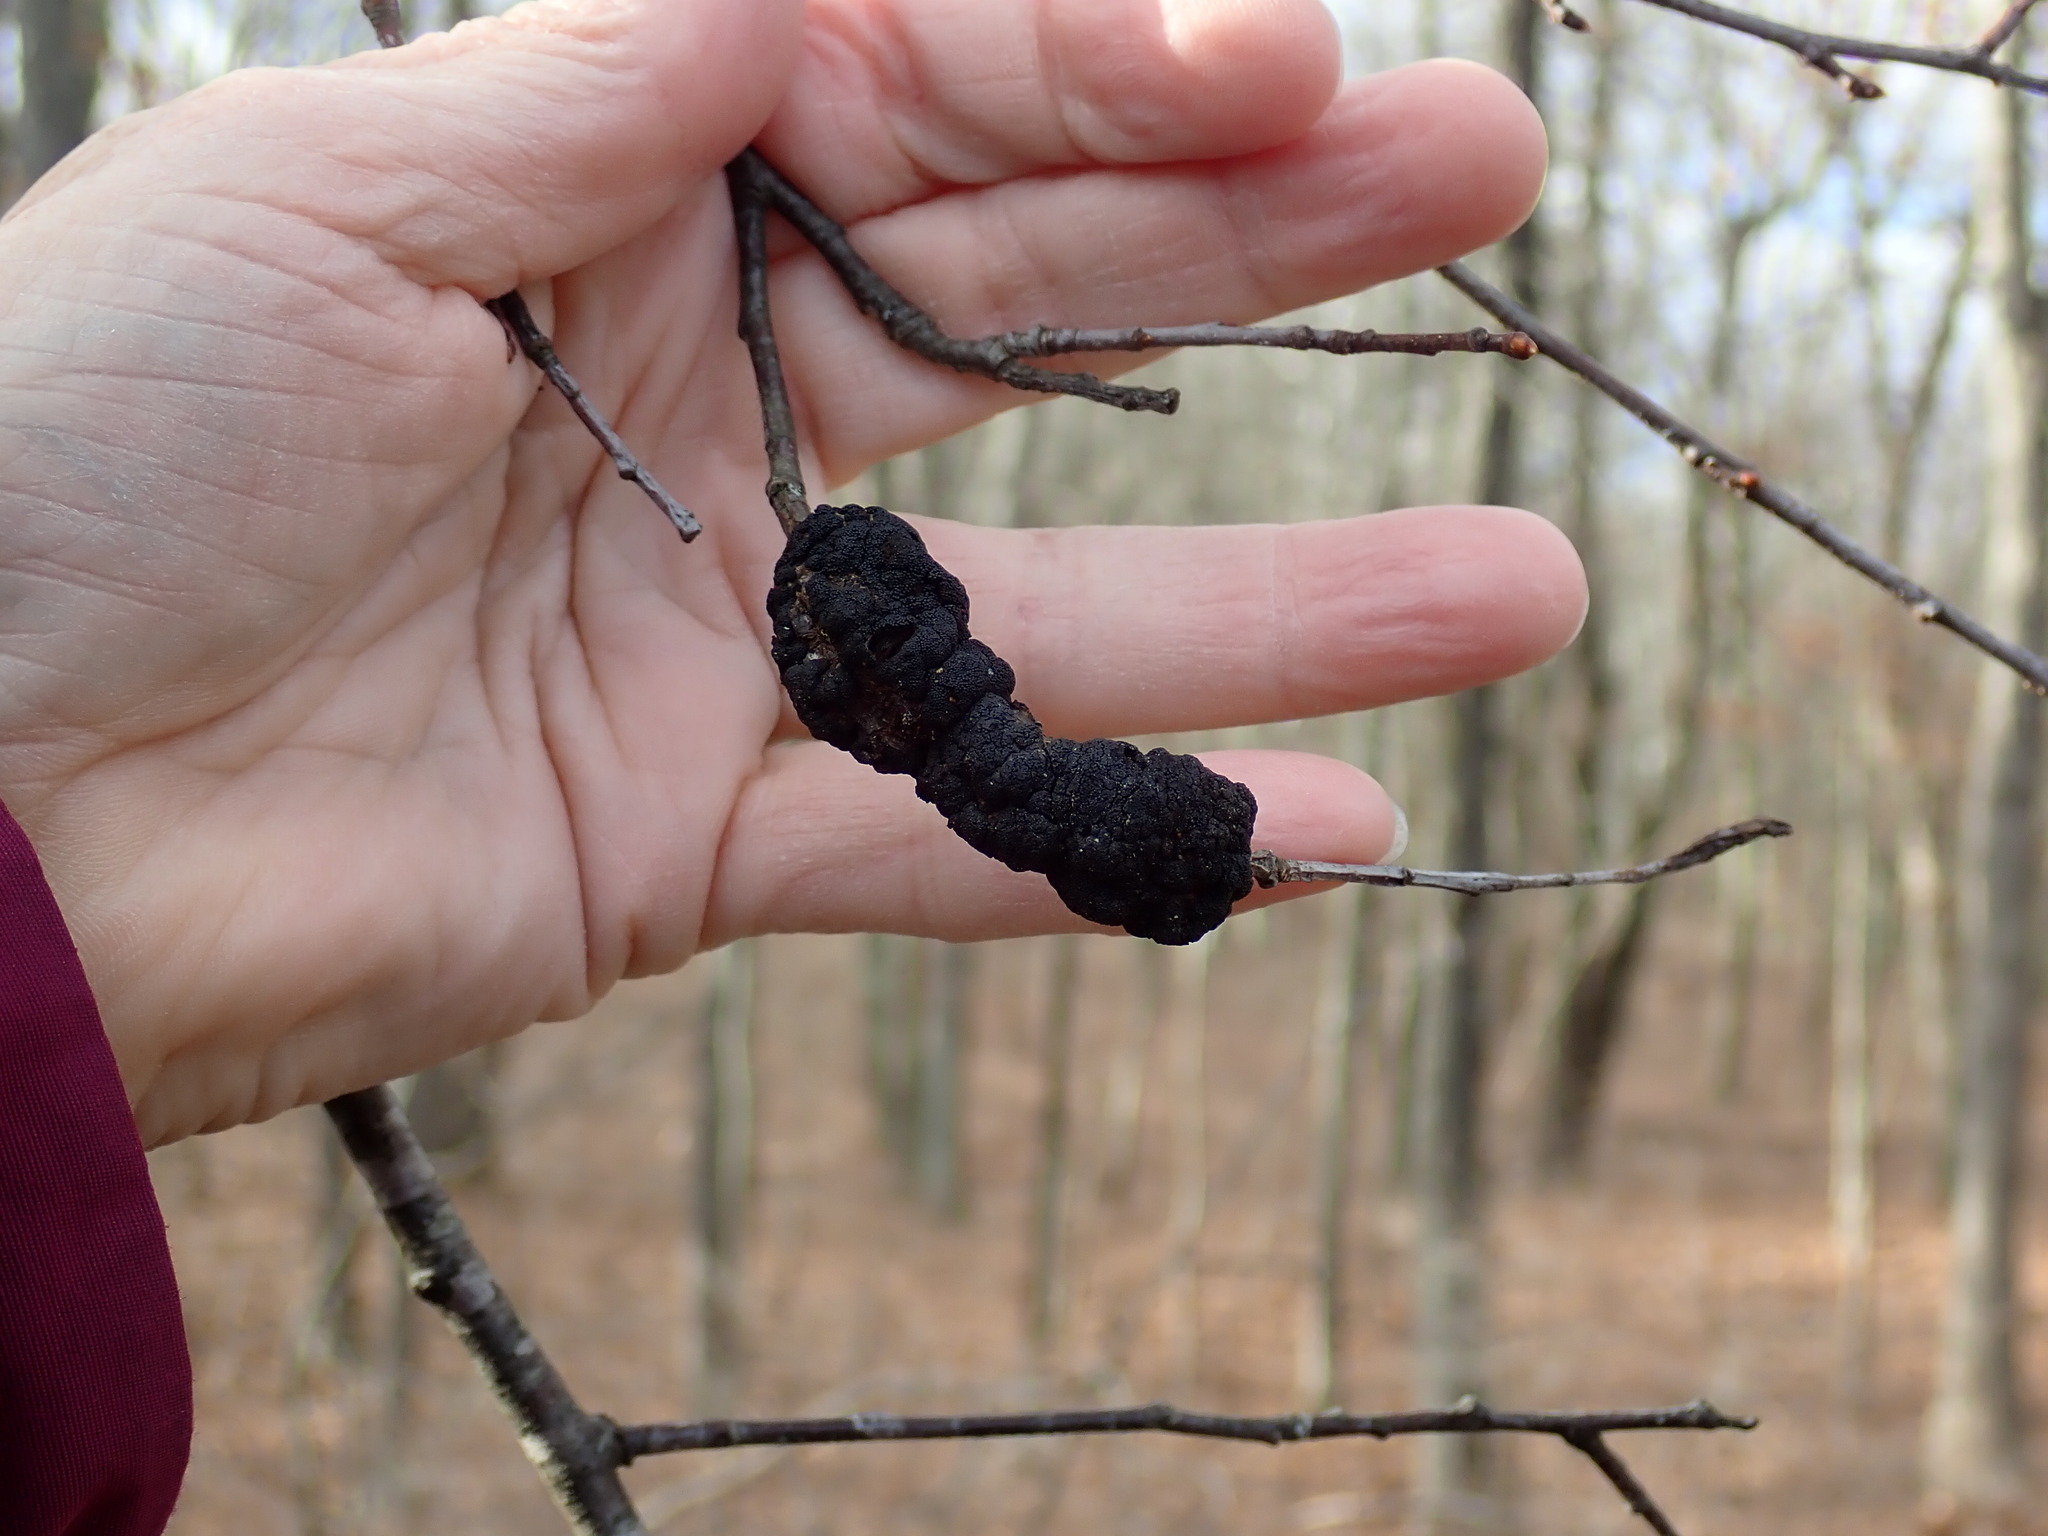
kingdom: Fungi
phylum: Ascomycota
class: Dothideomycetes
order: Venturiales
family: Venturiaceae
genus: Apiosporina
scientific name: Apiosporina morbosa
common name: Black knot
